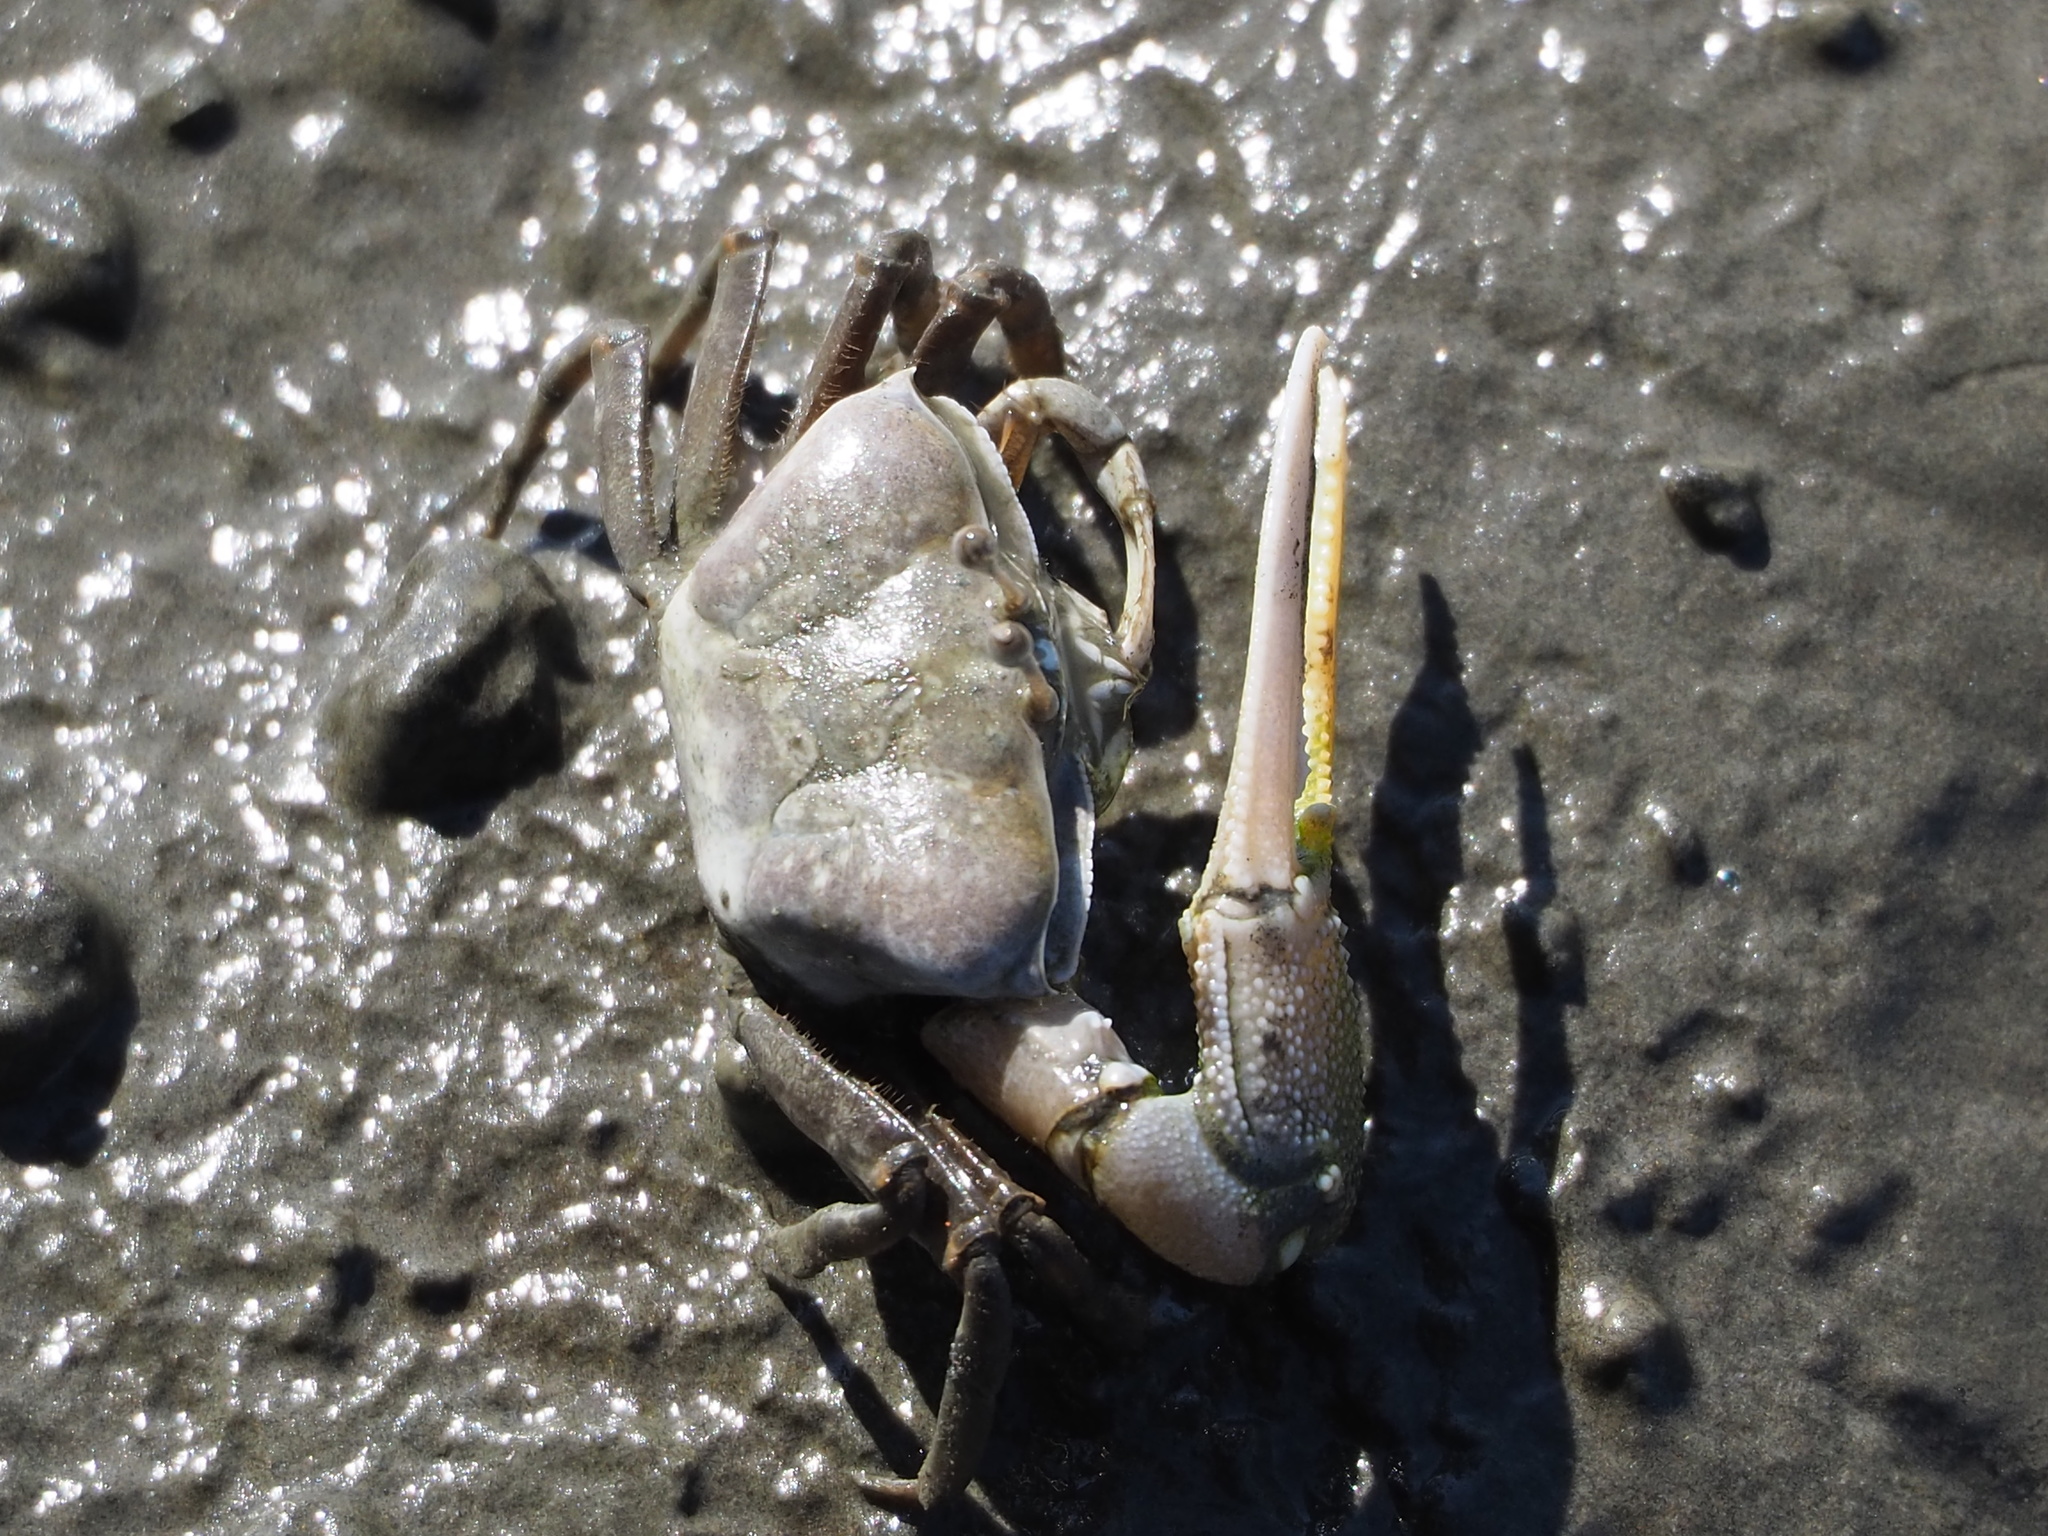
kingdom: Animalia
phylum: Arthropoda
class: Malacostraca
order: Decapoda
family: Ocypodidae
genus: Gelasimus
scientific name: Gelasimus borealis
